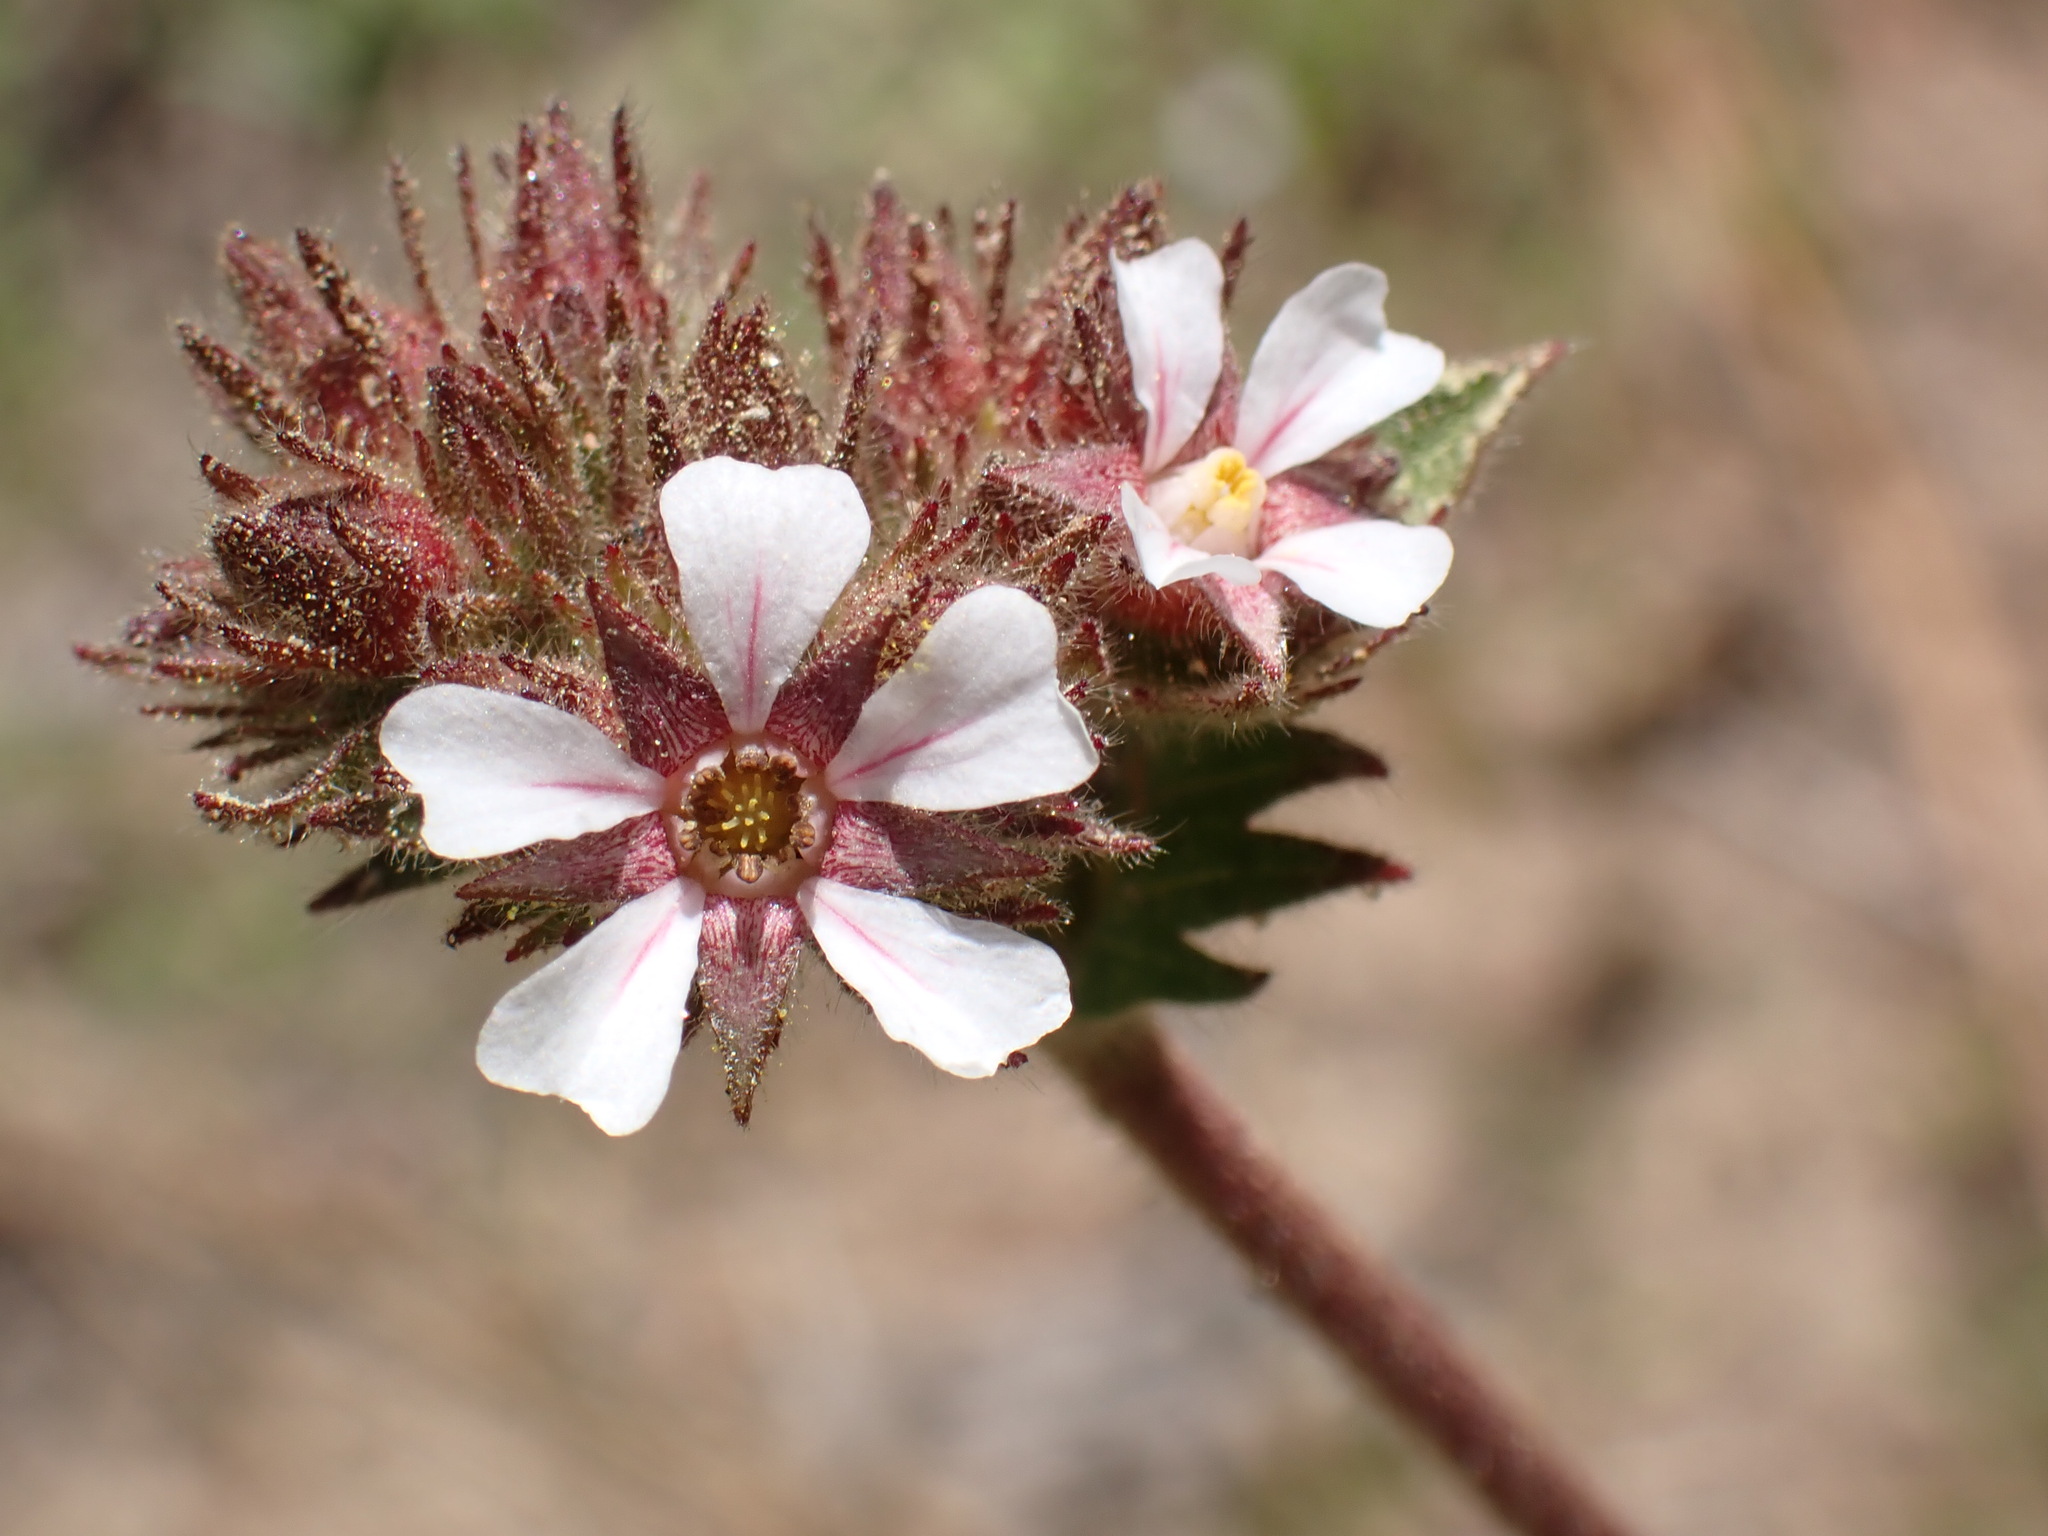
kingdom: Plantae
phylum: Tracheophyta
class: Magnoliopsida
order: Rosales
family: Rosaceae
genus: Potentilla
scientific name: Potentilla douglasii
